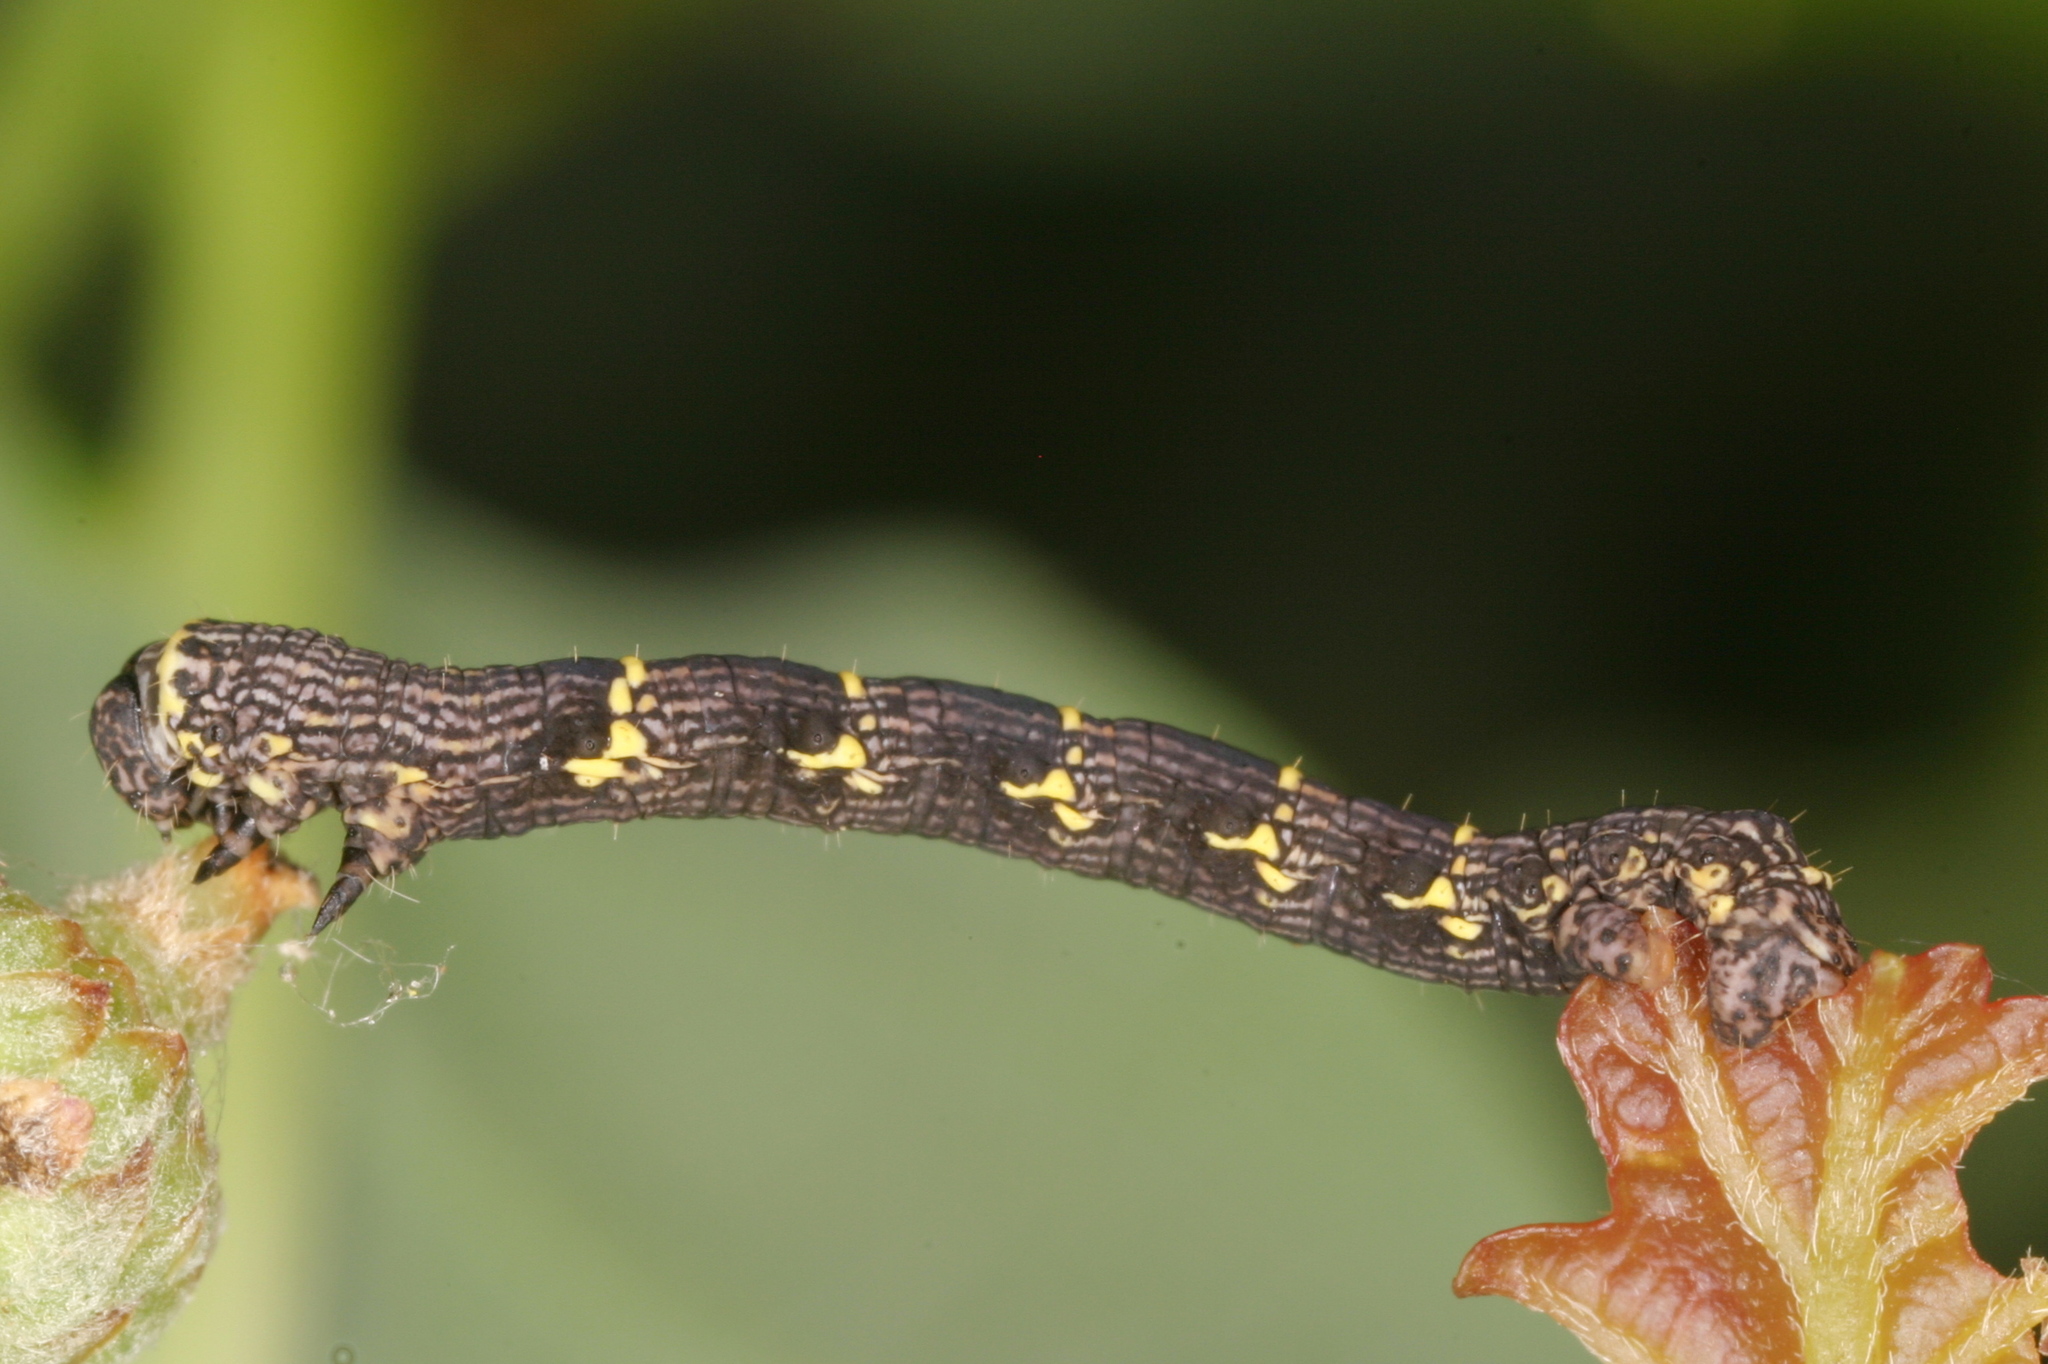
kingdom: Animalia
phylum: Arthropoda
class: Insecta
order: Lepidoptera
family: Geometridae
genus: Lycia
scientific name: Lycia hirtaria
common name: Brindled beauty
